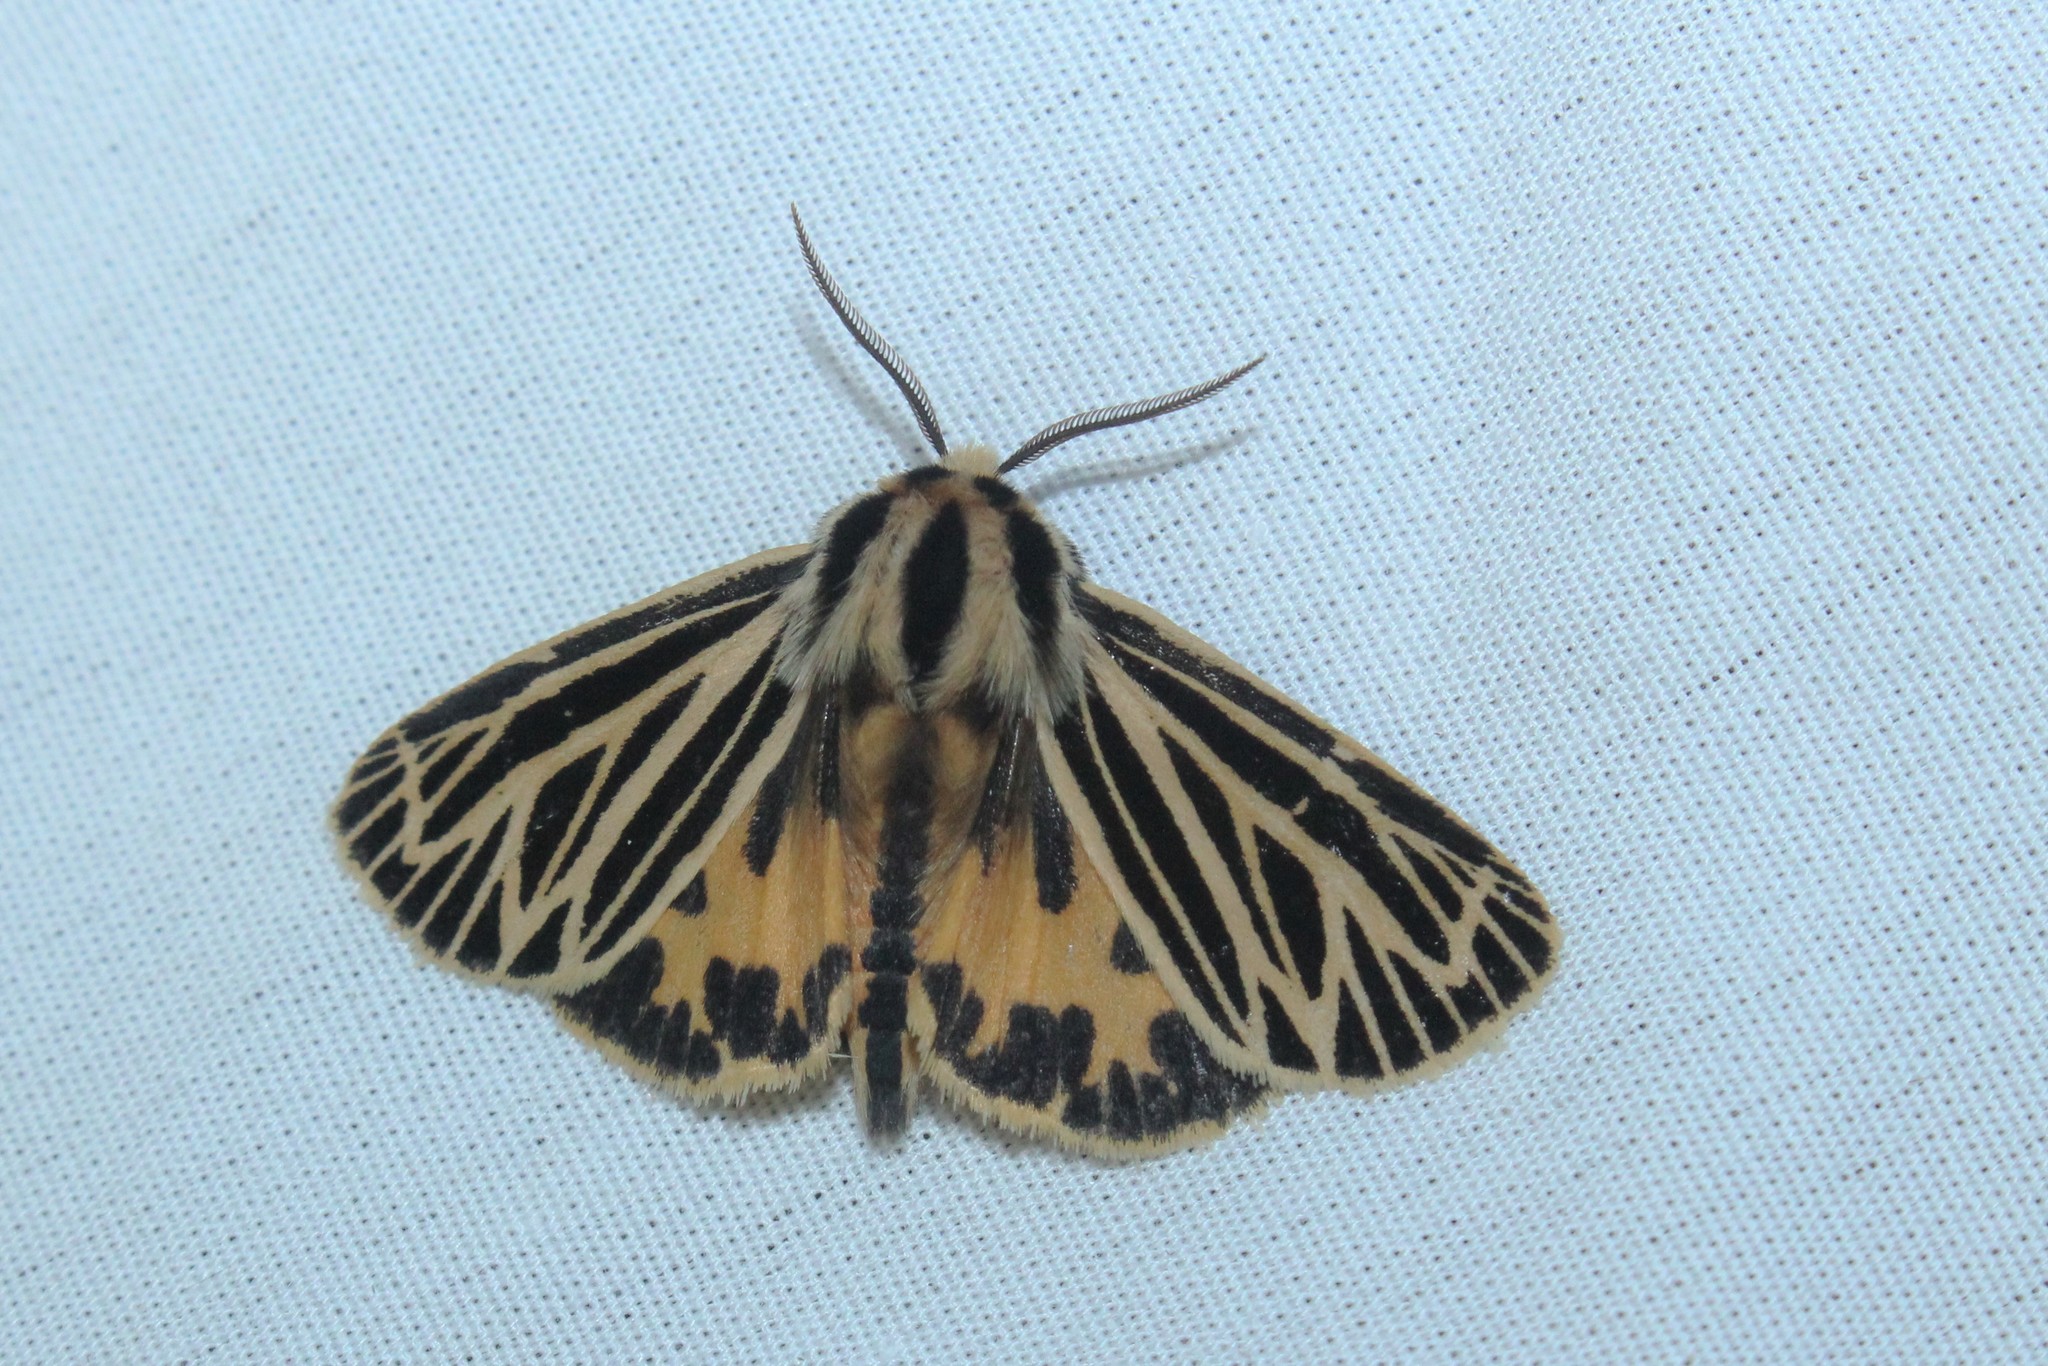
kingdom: Animalia
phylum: Arthropoda
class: Insecta
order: Lepidoptera
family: Erebidae
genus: Grammia
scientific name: Grammia virguncula
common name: Little tiger moth
